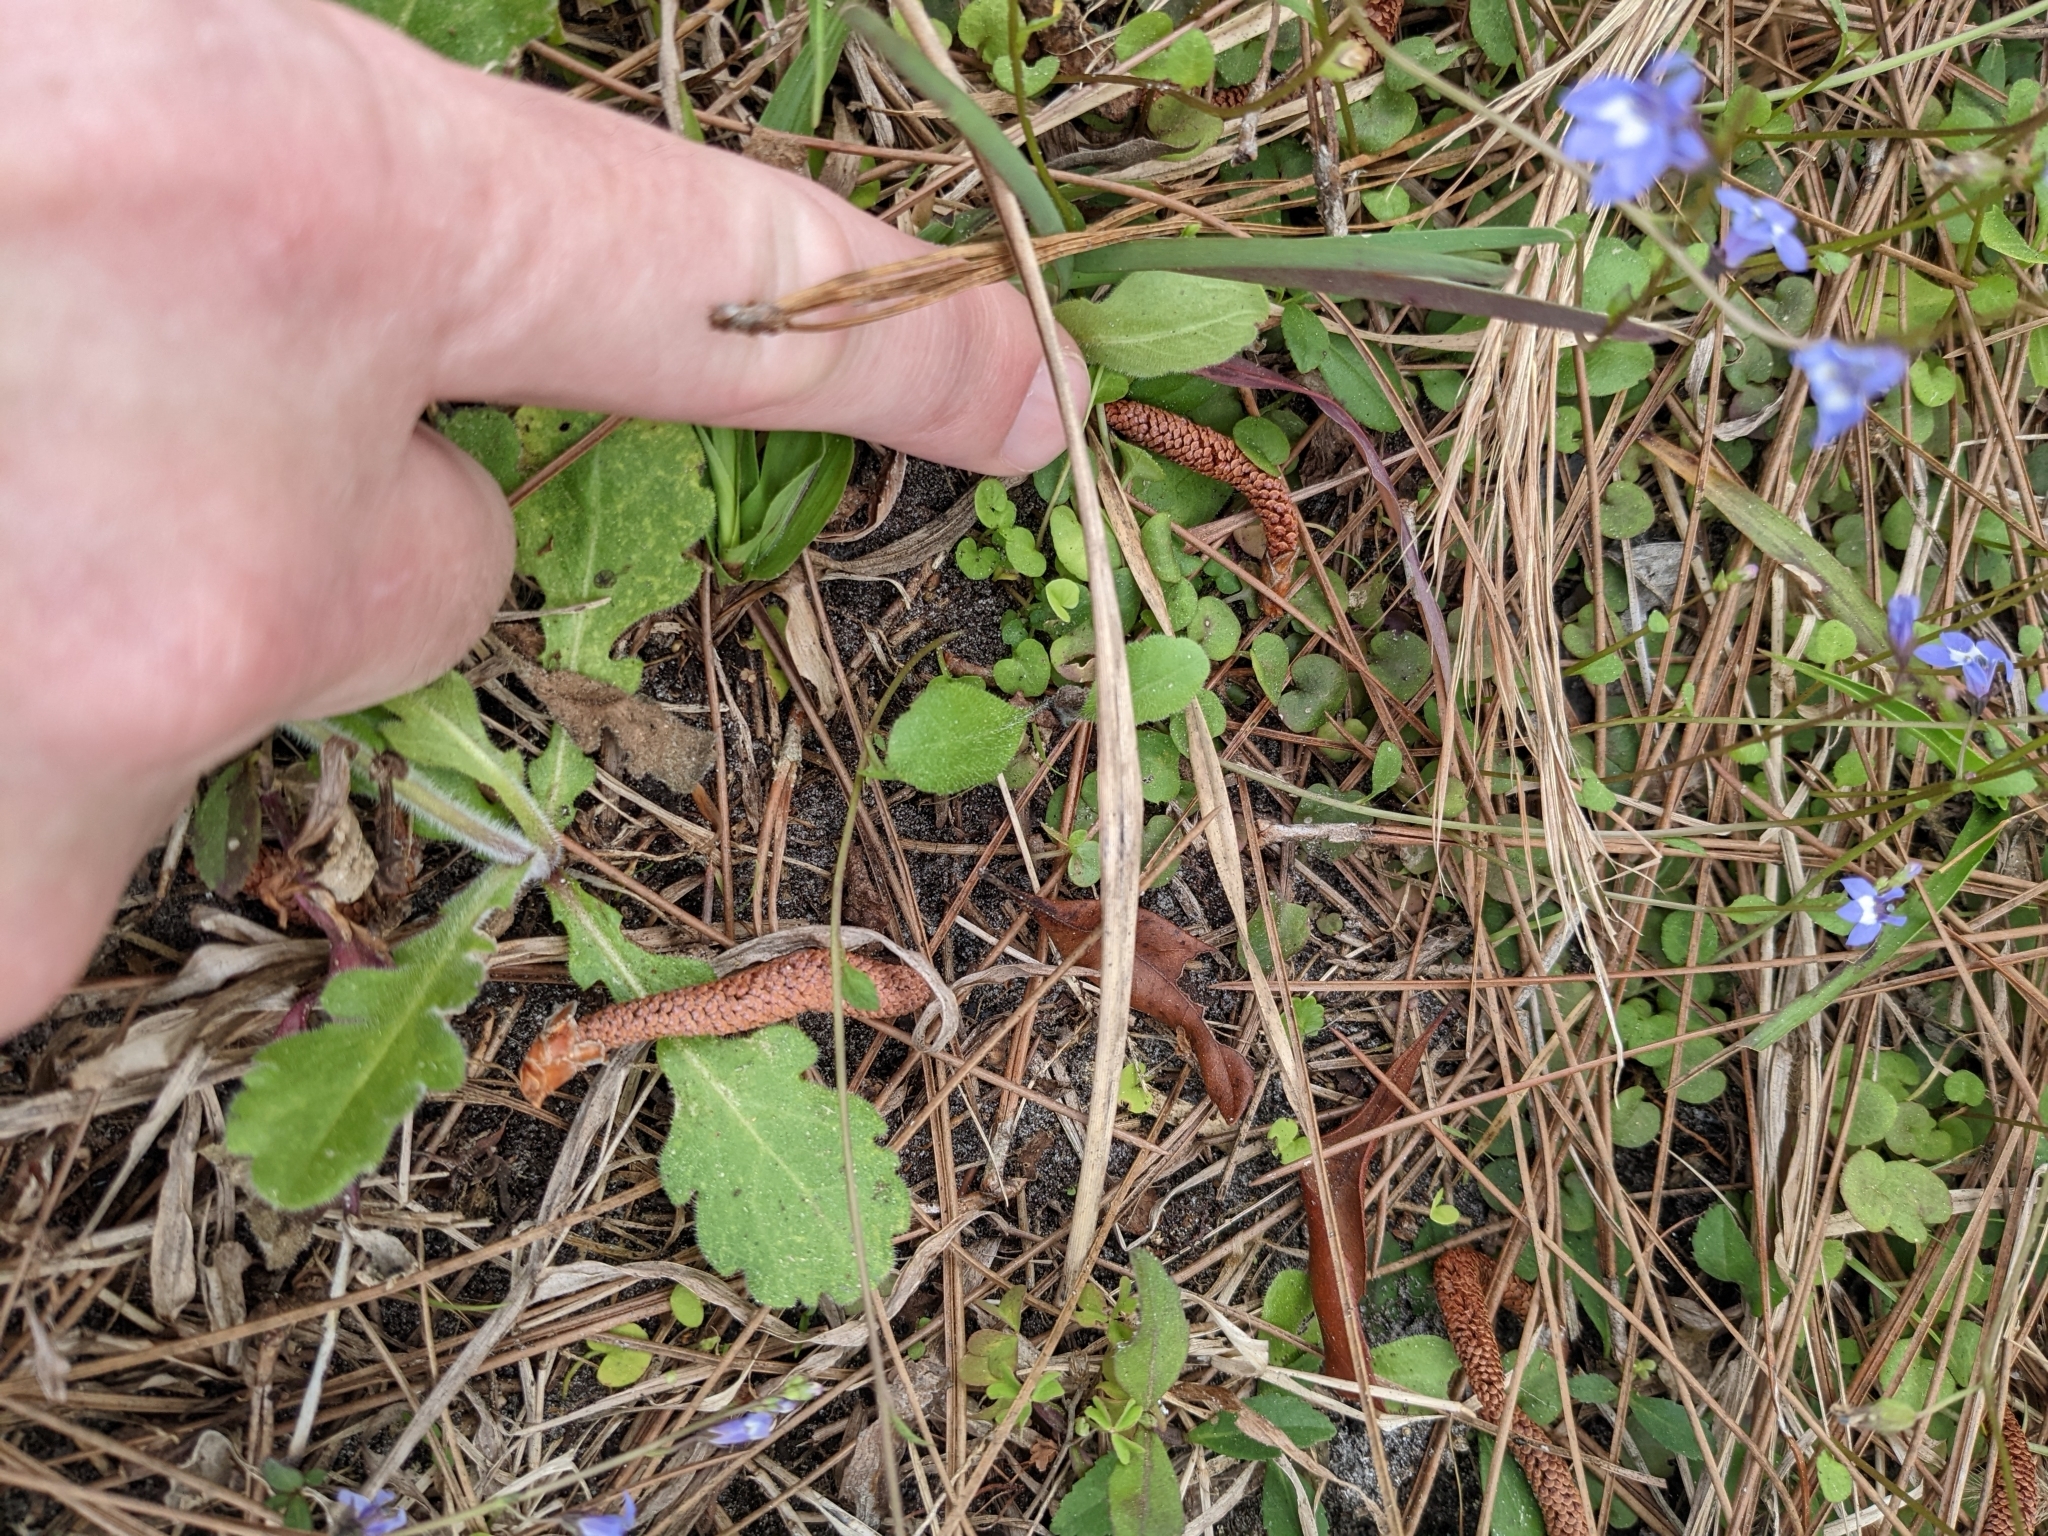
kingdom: Plantae
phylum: Tracheophyta
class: Magnoliopsida
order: Asterales
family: Campanulaceae
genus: Lobelia
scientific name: Lobelia feayana
